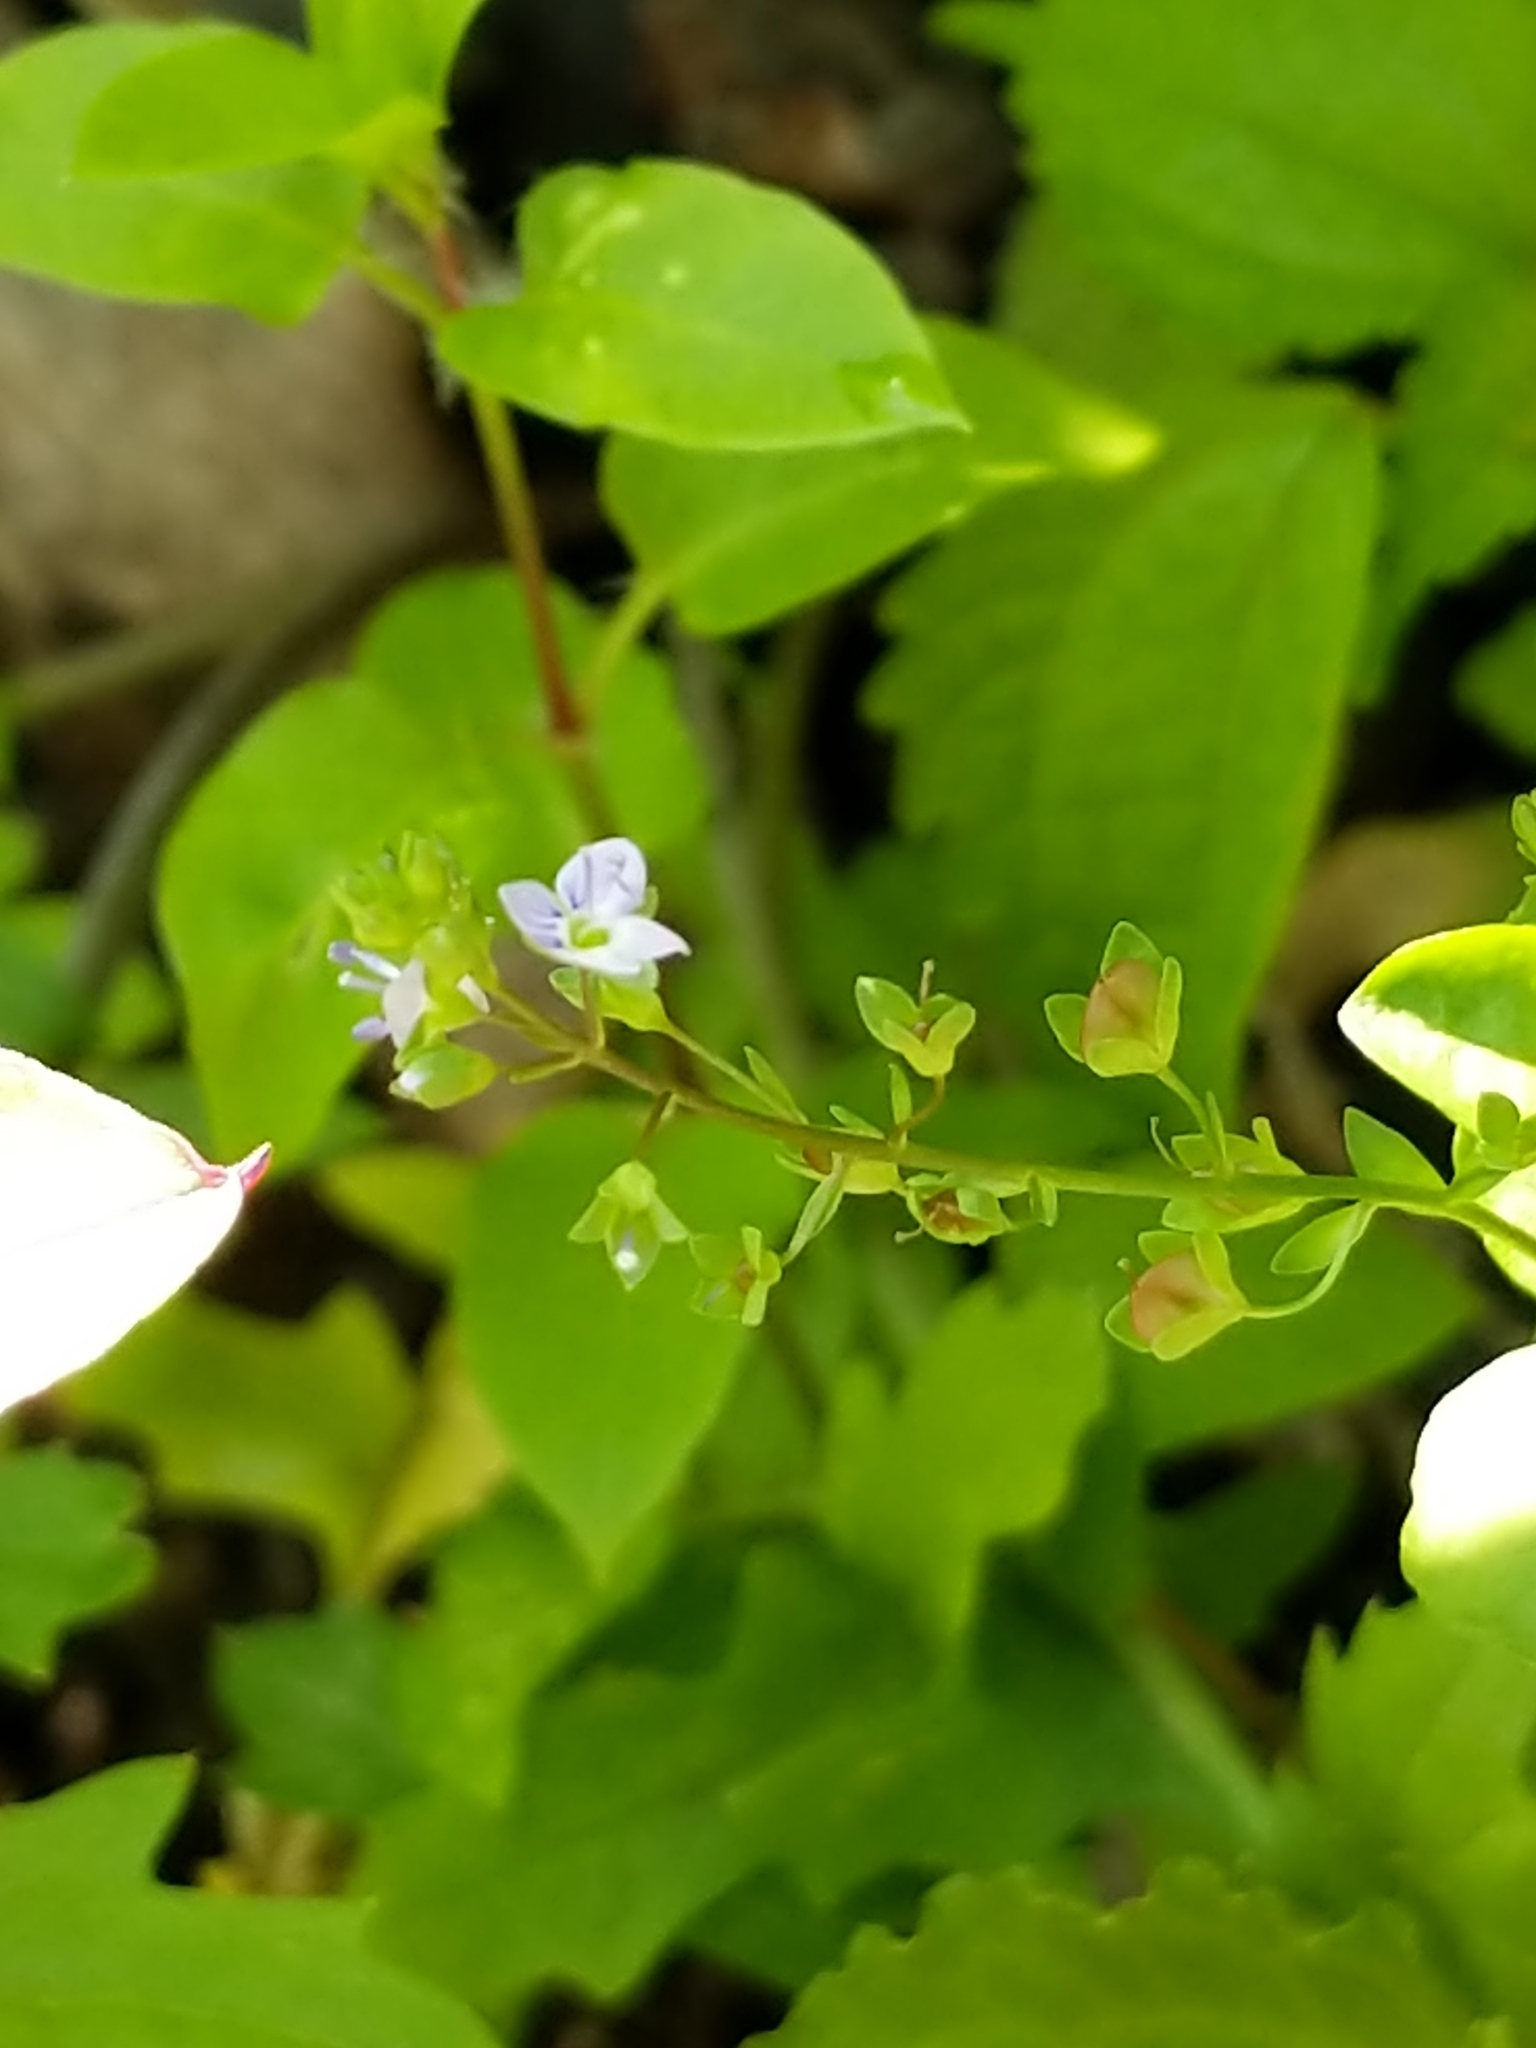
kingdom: Plantae
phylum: Tracheophyta
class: Magnoliopsida
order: Lamiales
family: Plantaginaceae
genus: Veronica
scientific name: Veronica anagallis-aquatica
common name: Water speedwell
